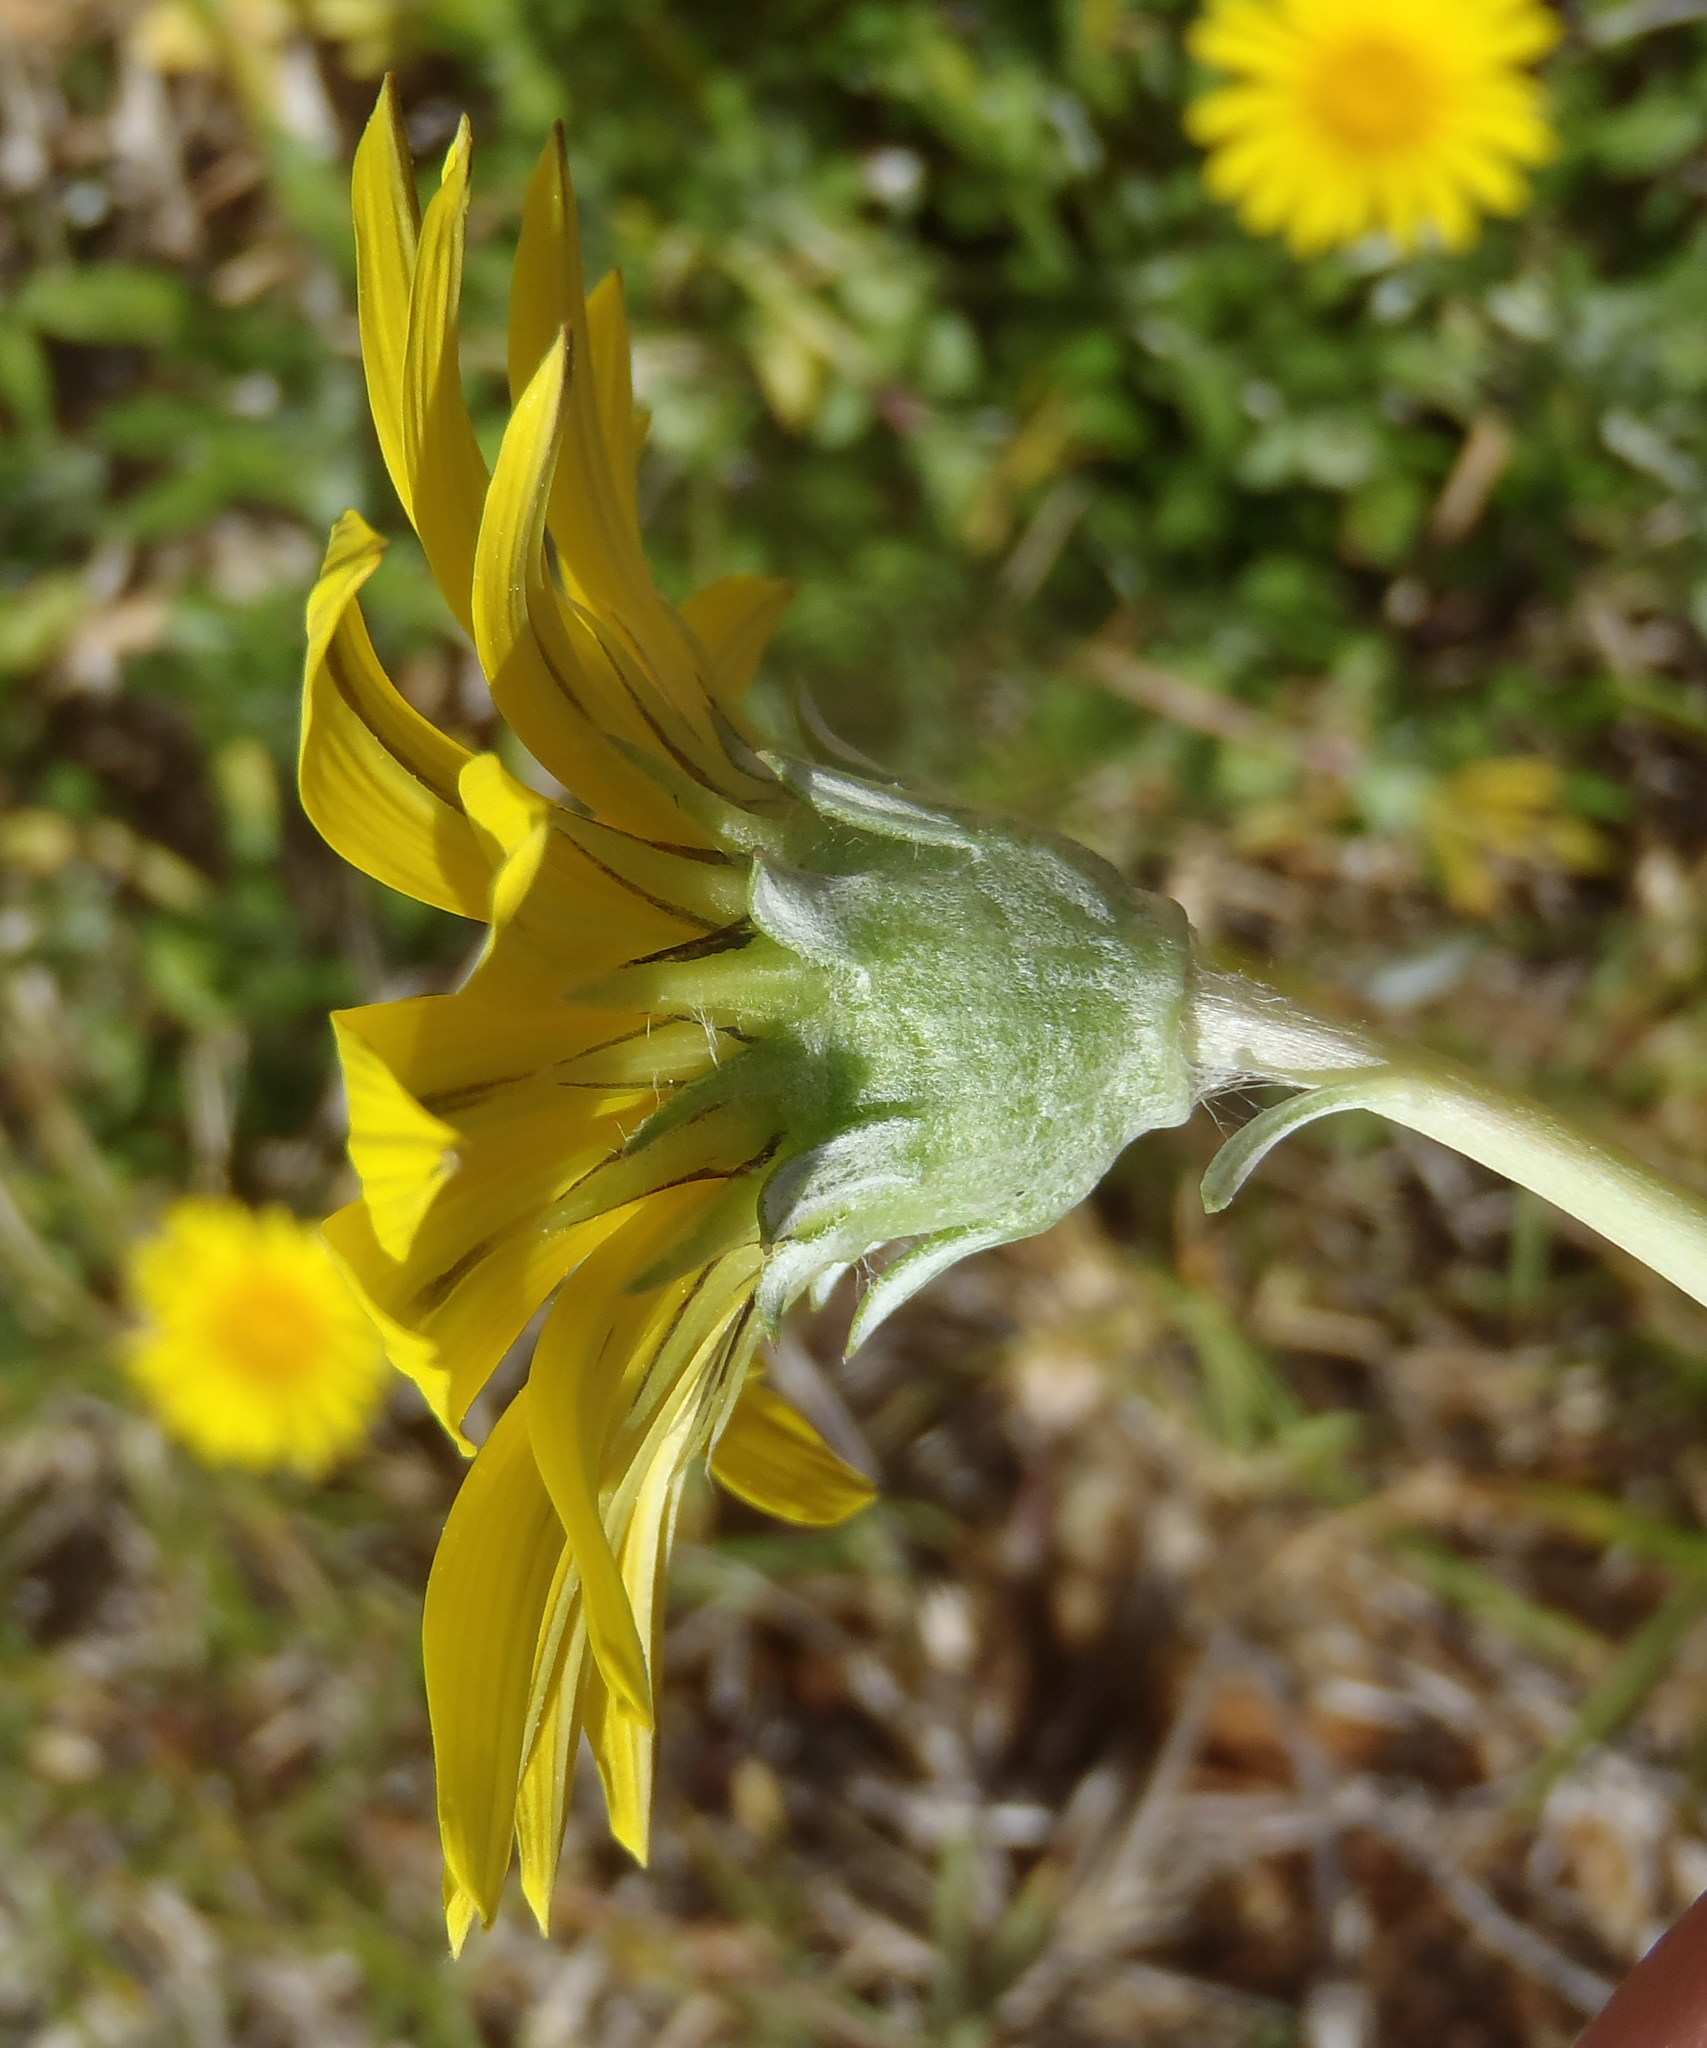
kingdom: Plantae
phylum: Tracheophyta
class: Magnoliopsida
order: Asterales
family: Asteraceae
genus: Gazania
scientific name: Gazania rigens
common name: Treasureflower
